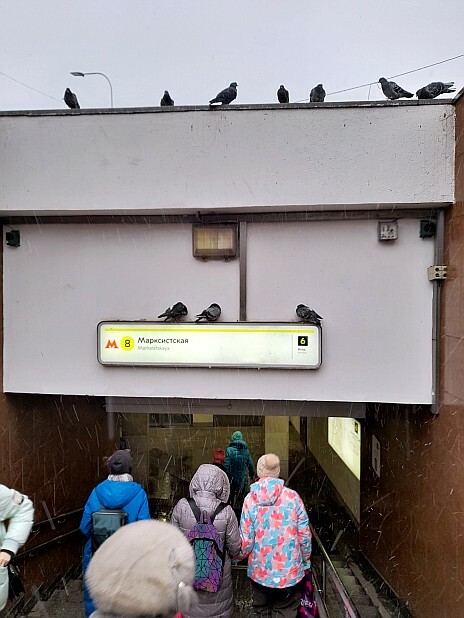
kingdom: Animalia
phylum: Chordata
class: Aves
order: Columbiformes
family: Columbidae
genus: Columba
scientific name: Columba livia
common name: Rock pigeon
